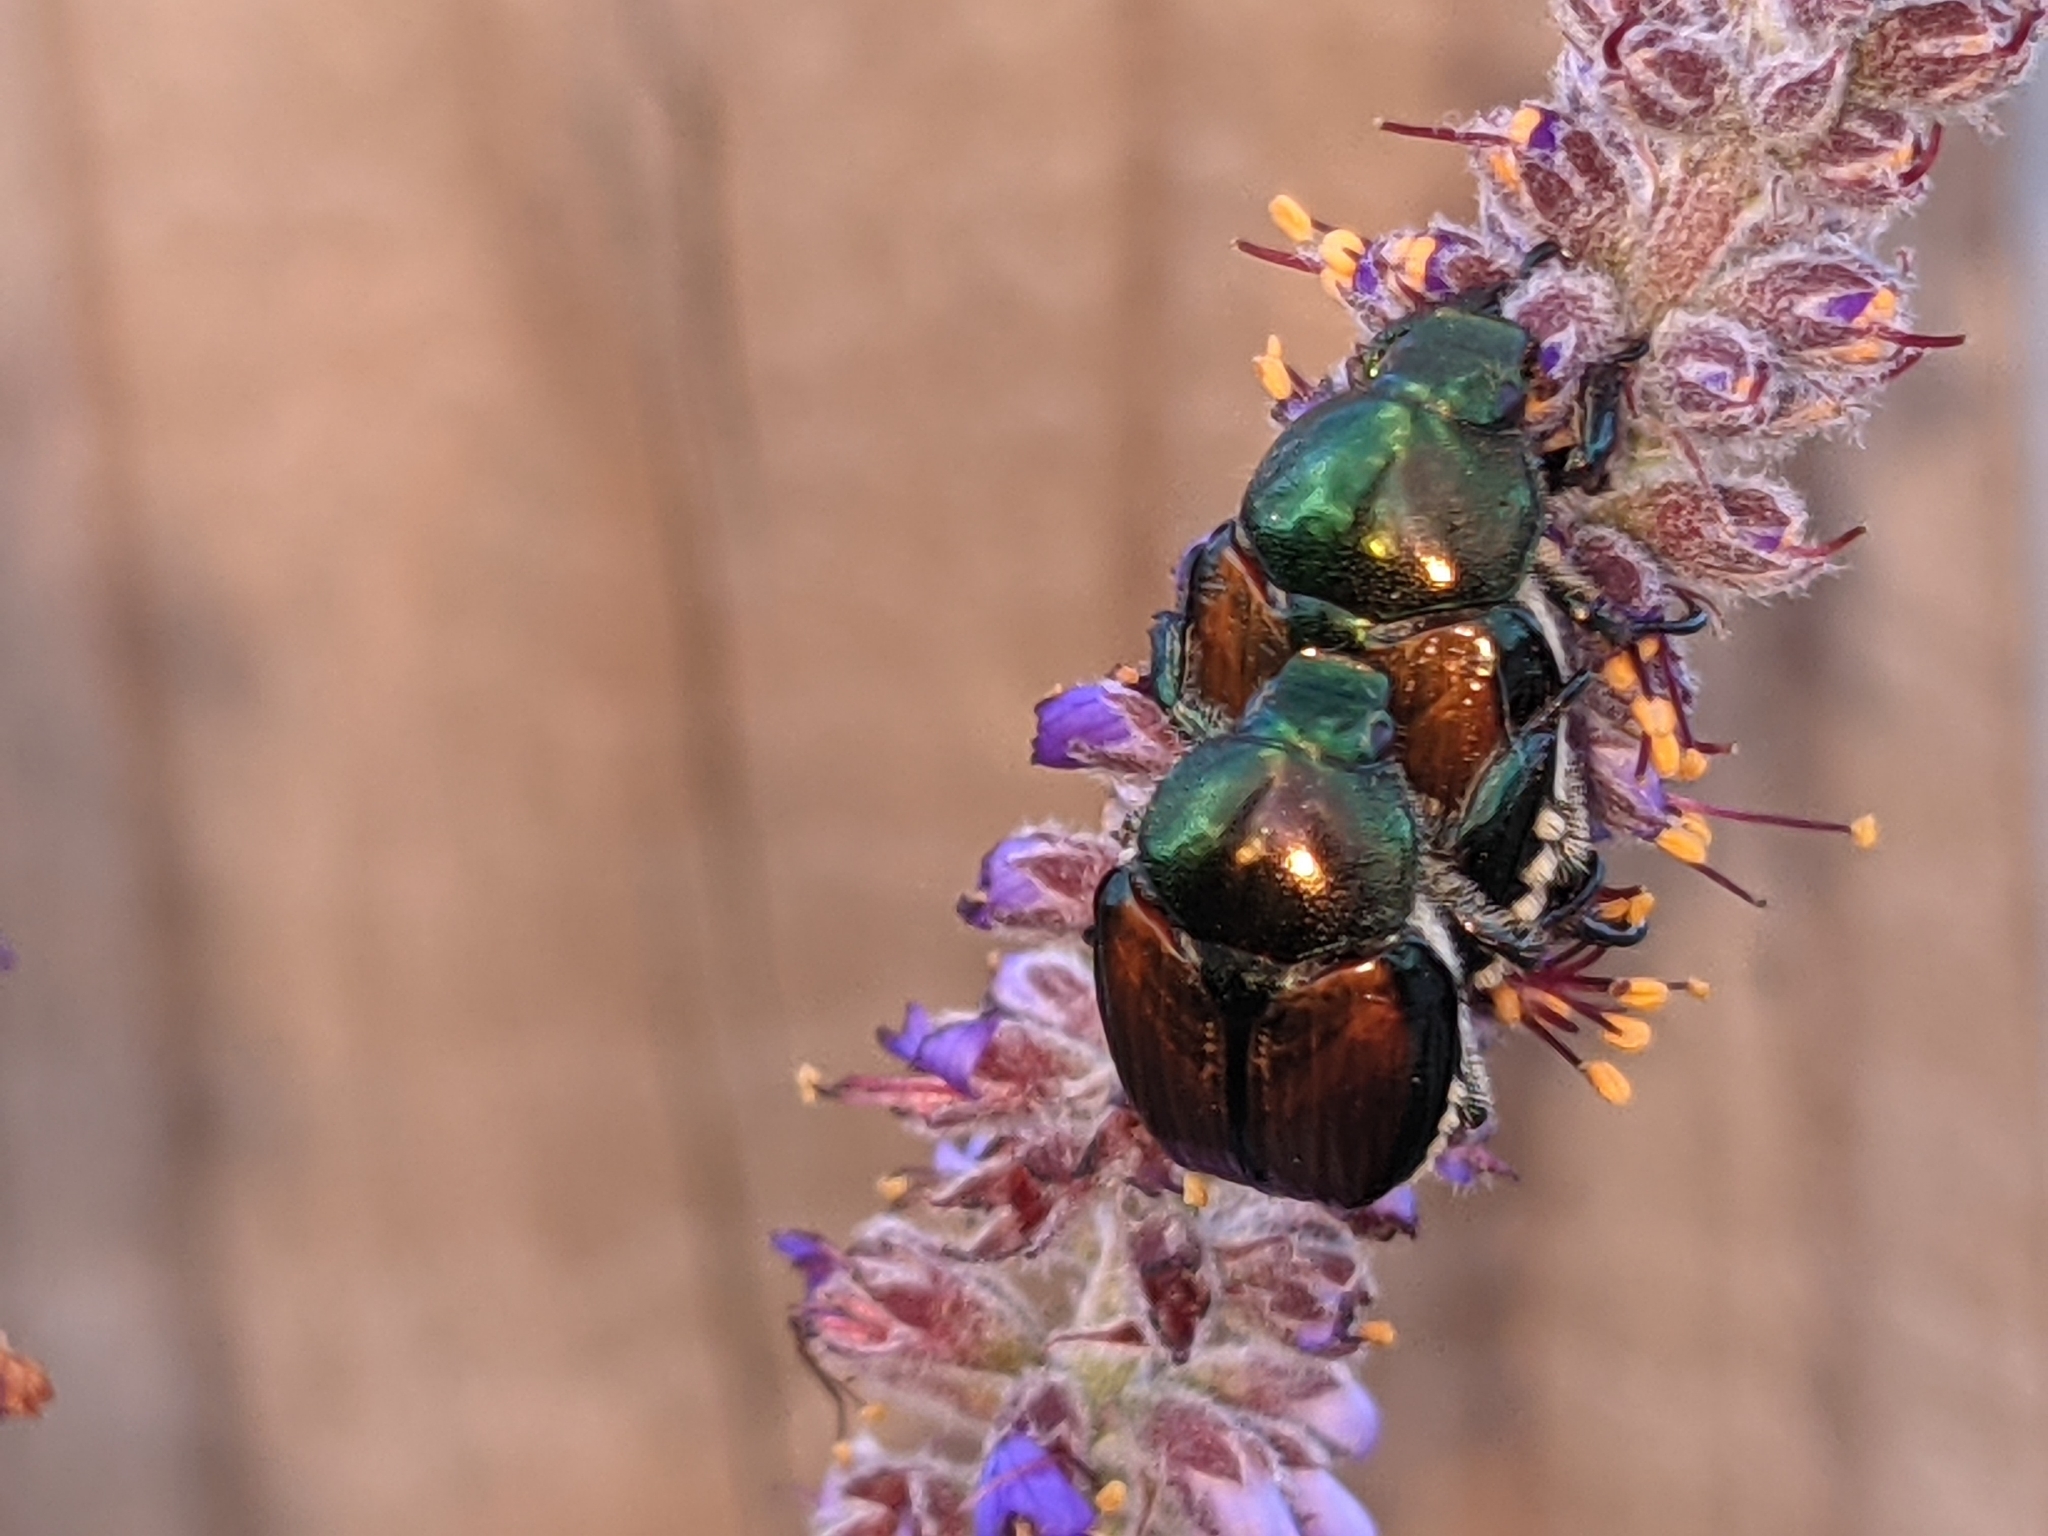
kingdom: Animalia
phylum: Arthropoda
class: Insecta
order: Coleoptera
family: Scarabaeidae
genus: Popillia
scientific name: Popillia japonica
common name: Japanese beetle
